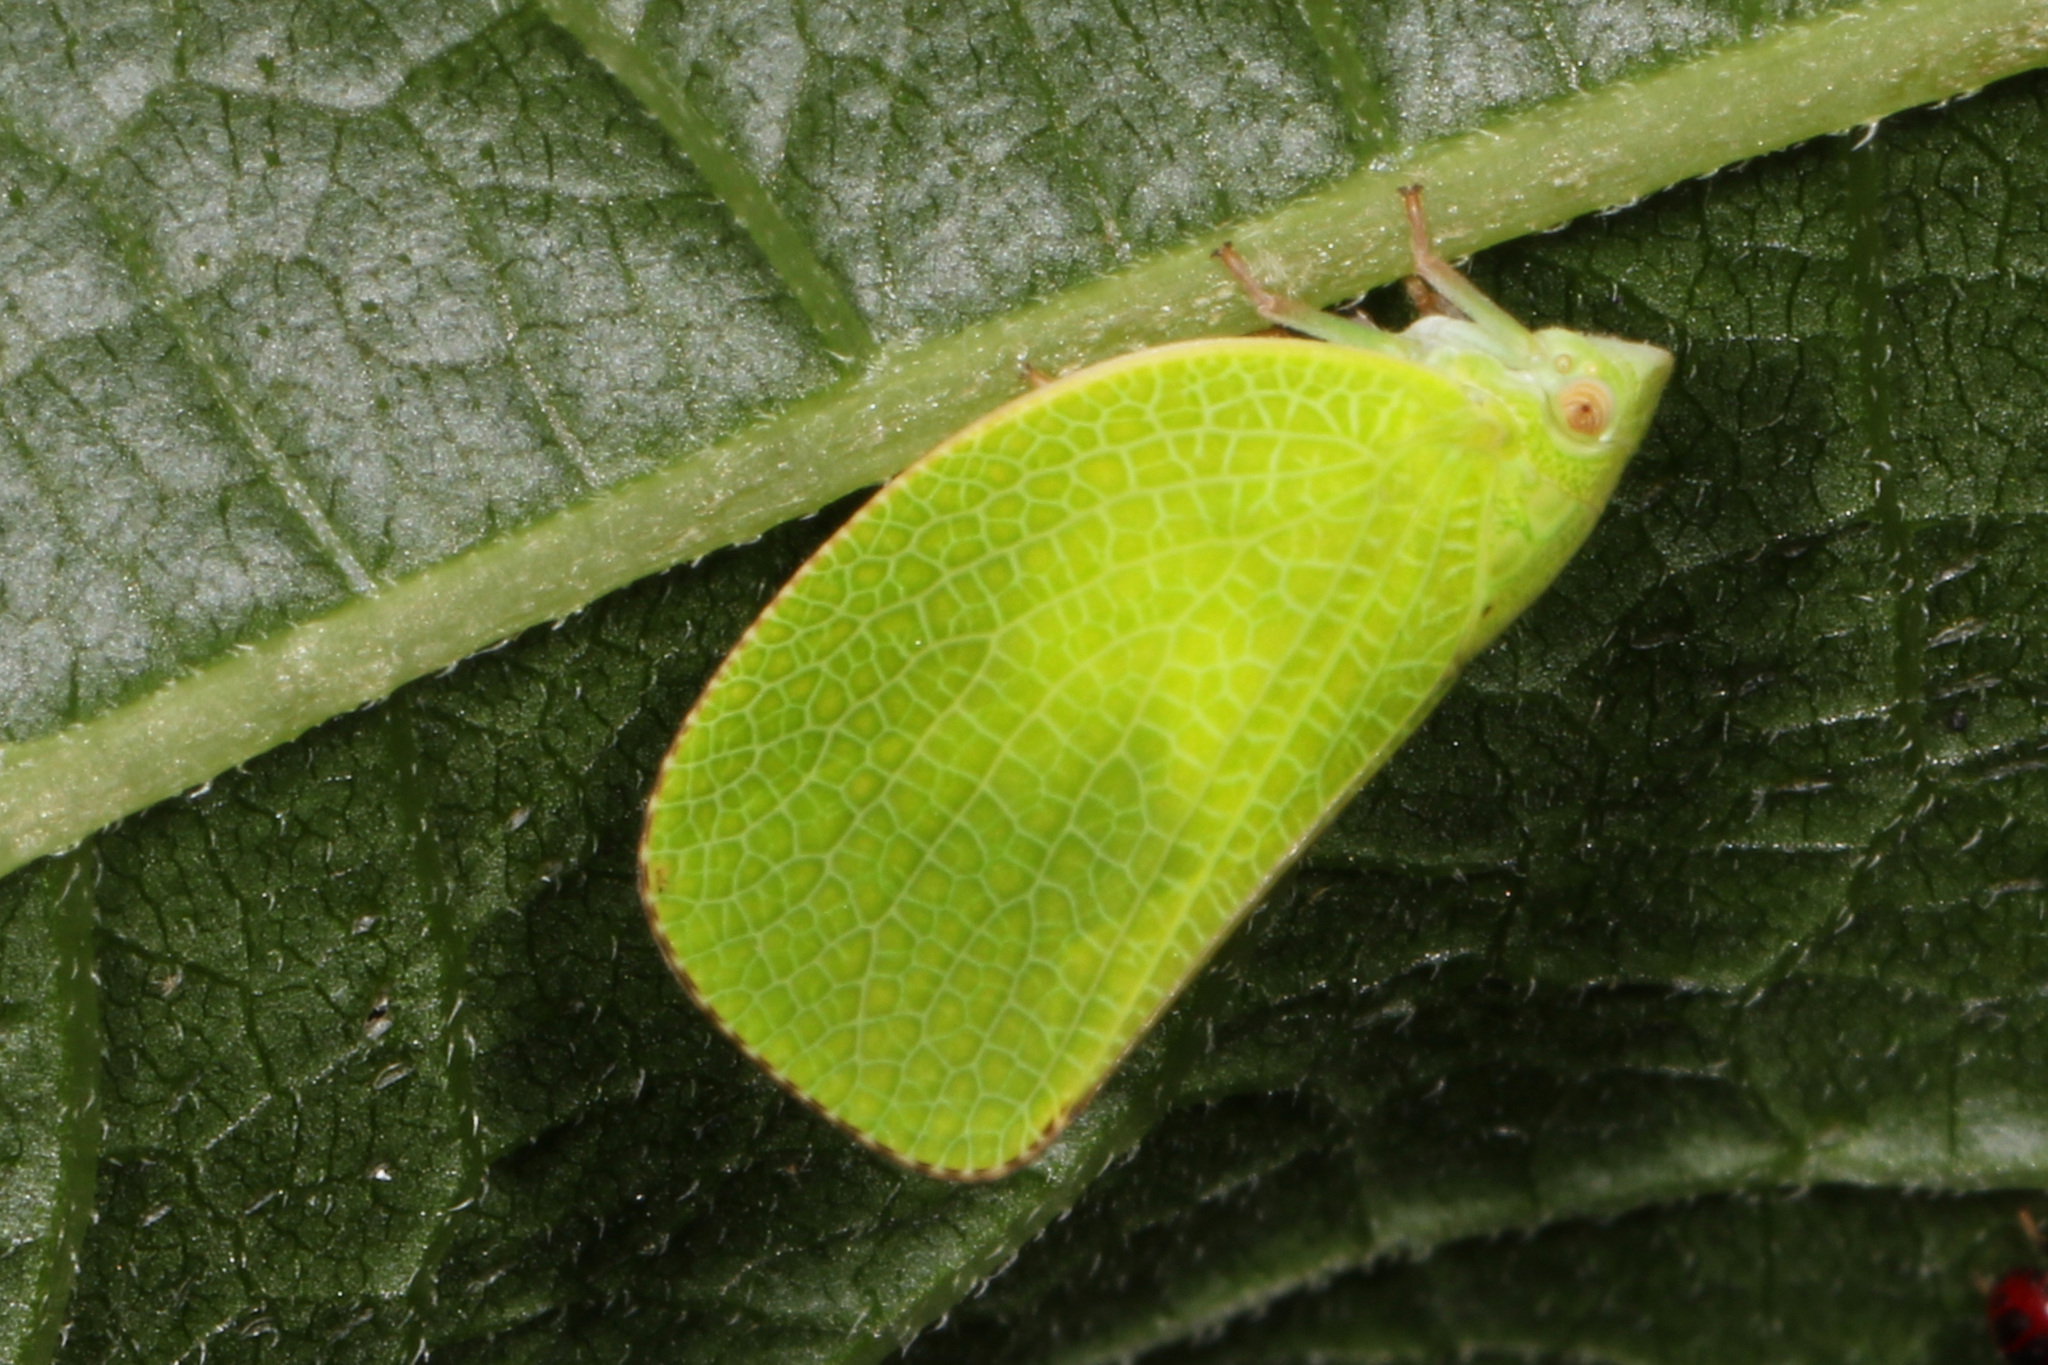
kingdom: Animalia
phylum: Arthropoda
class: Insecta
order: Hemiptera
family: Acanaloniidae
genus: Acanalonia
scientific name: Acanalonia conica
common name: Green cone-headed planthopper
